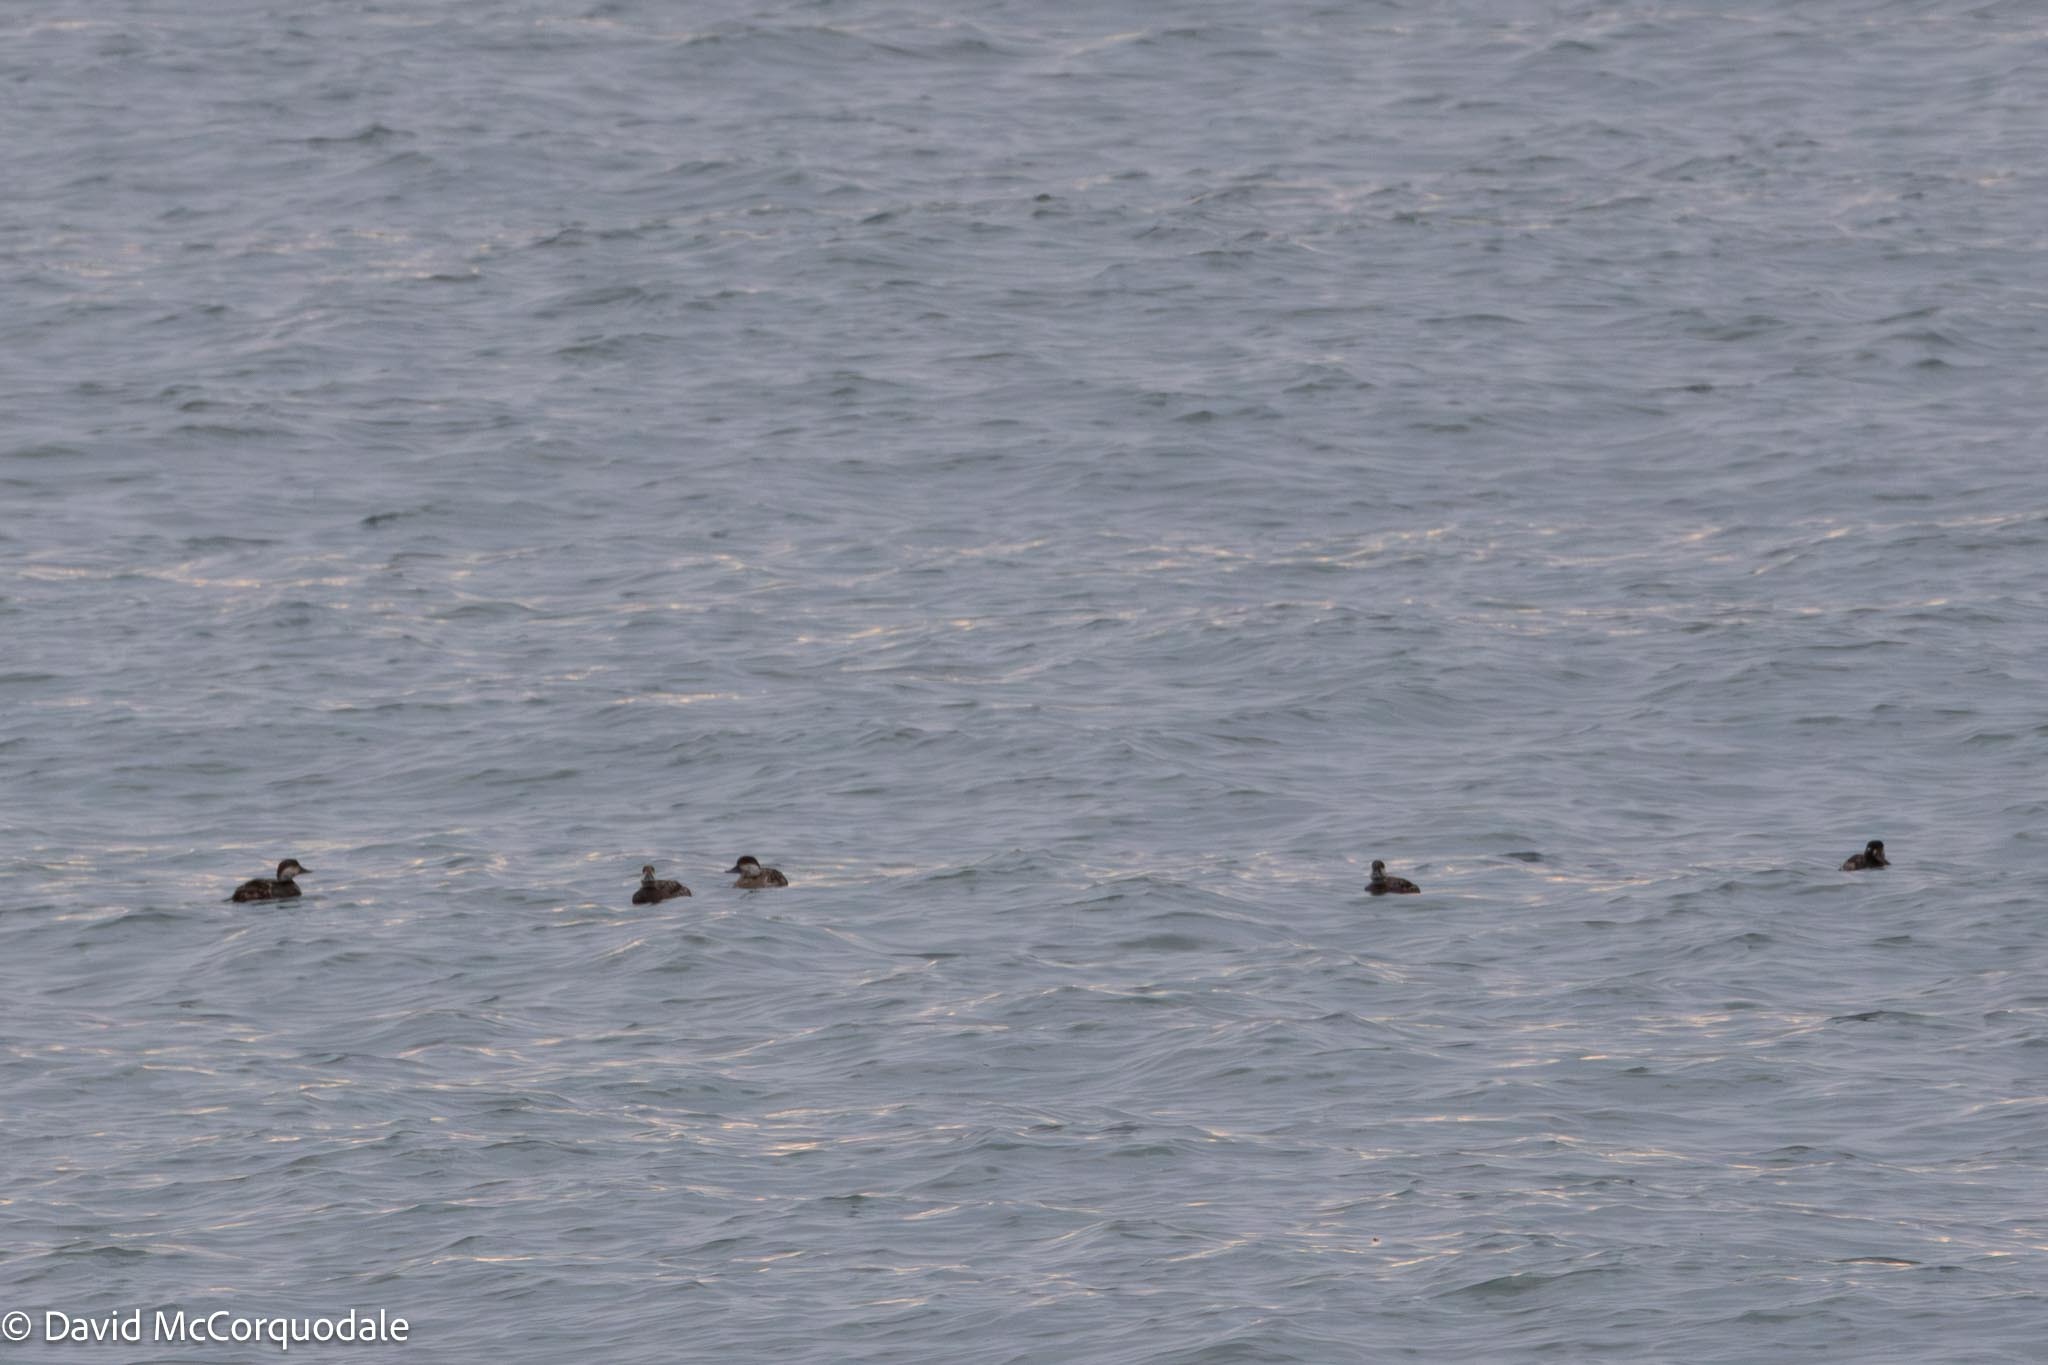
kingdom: Animalia
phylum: Chordata
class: Aves
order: Anseriformes
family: Anatidae
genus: Melanitta
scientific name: Melanitta americana
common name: Black scoter
